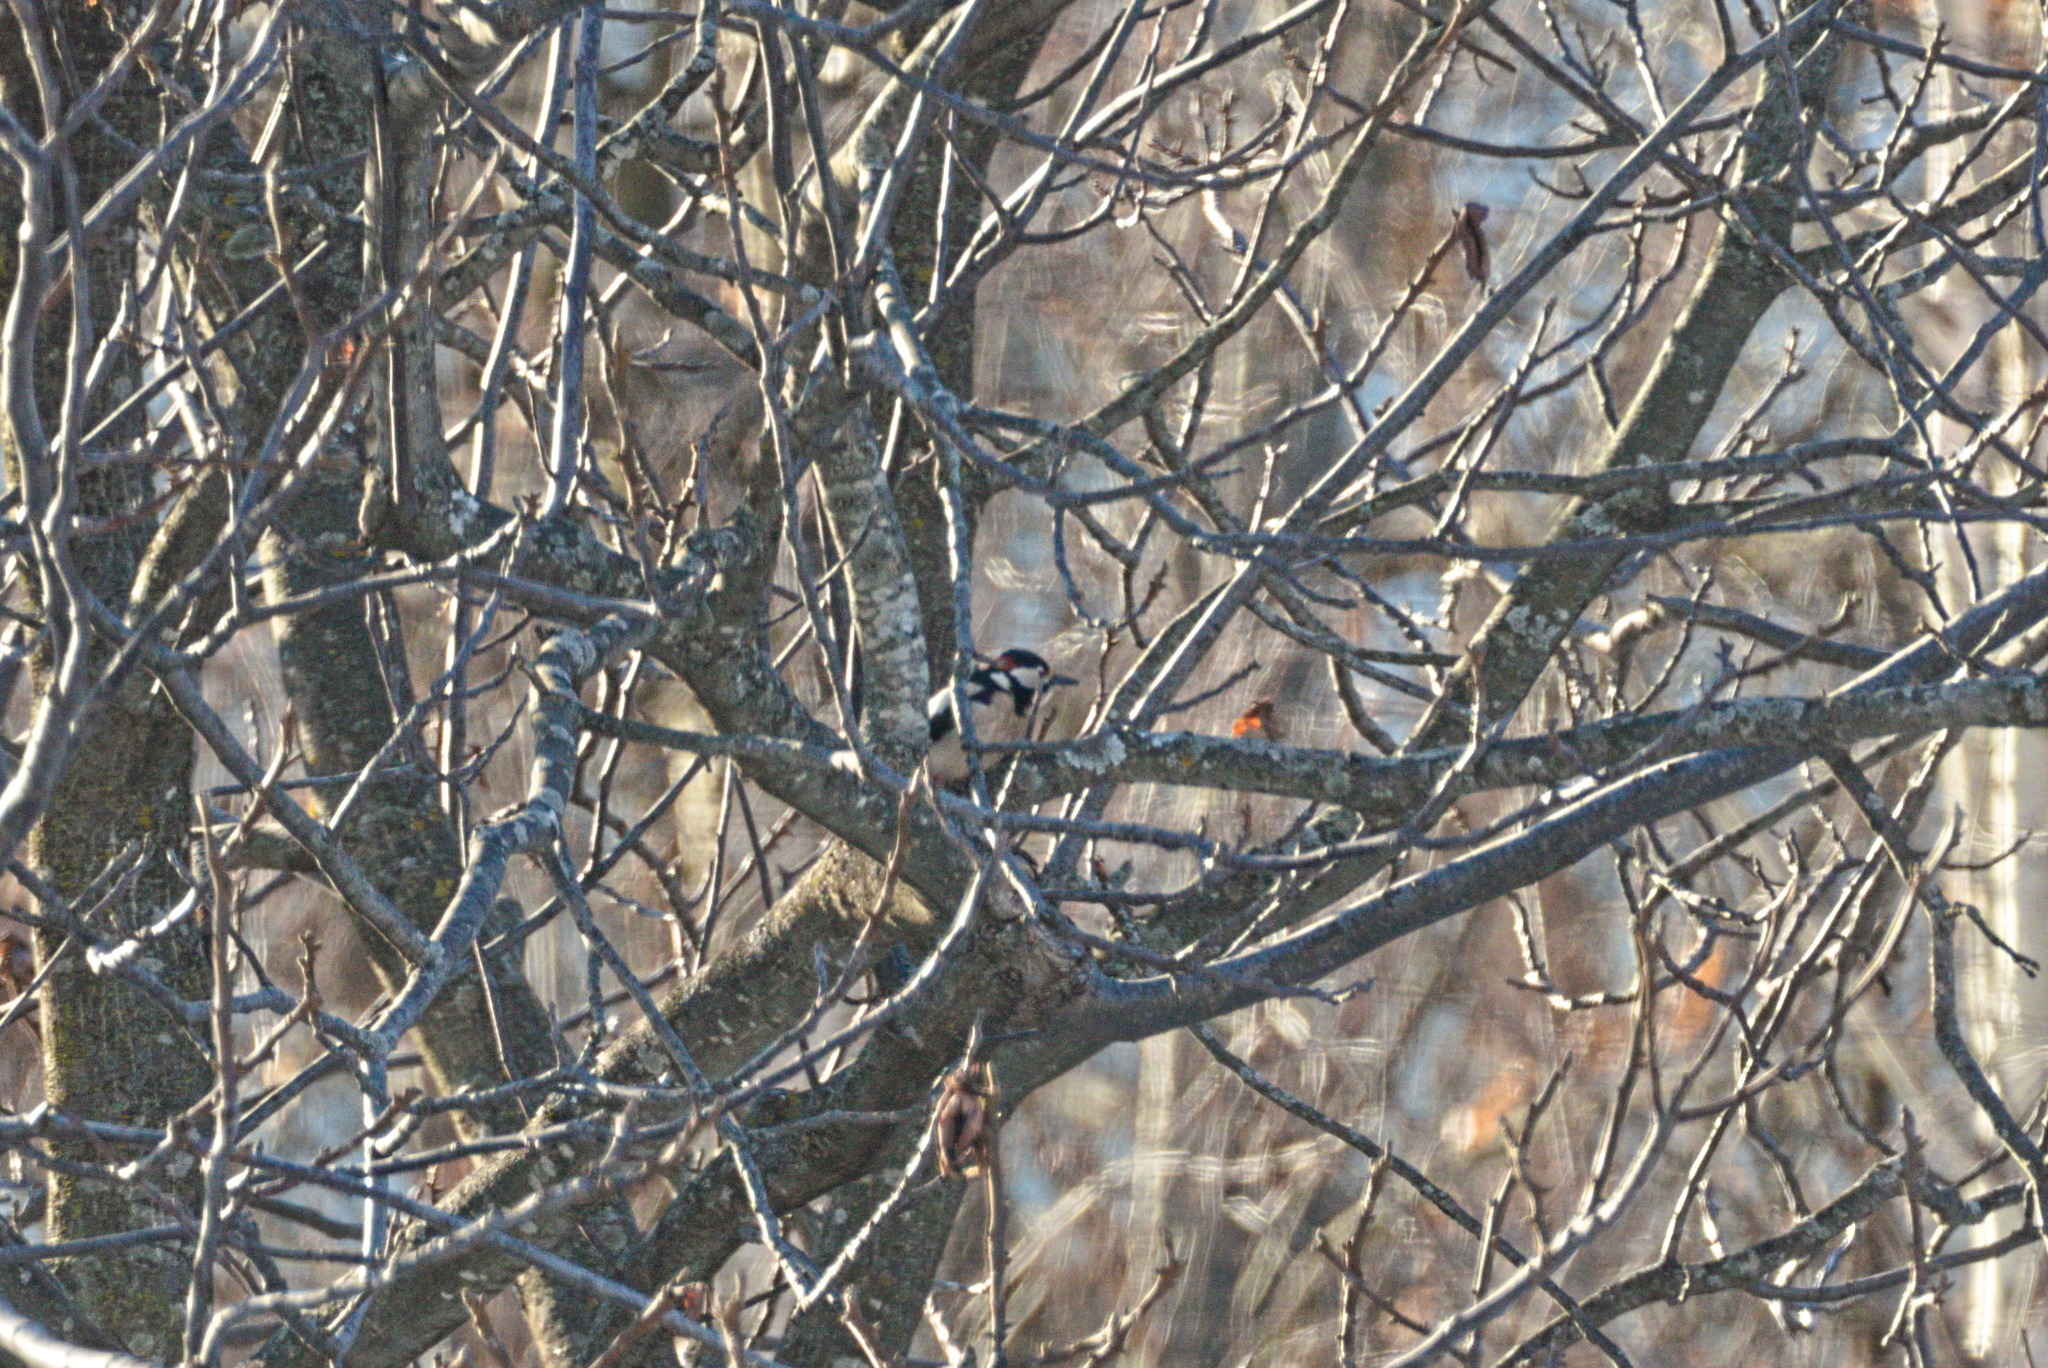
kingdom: Animalia
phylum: Chordata
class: Aves
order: Piciformes
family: Picidae
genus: Dendrocopos
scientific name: Dendrocopos major
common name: Great spotted woodpecker
